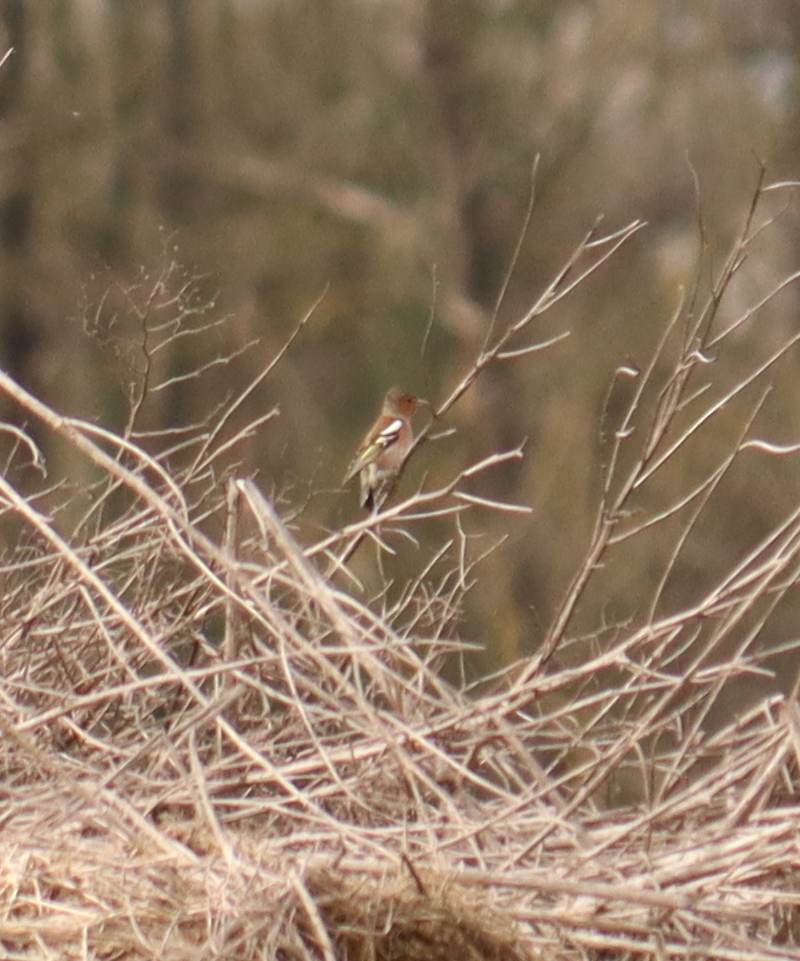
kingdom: Animalia
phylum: Chordata
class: Aves
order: Passeriformes
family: Fringillidae
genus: Fringilla
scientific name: Fringilla coelebs
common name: Common chaffinch
